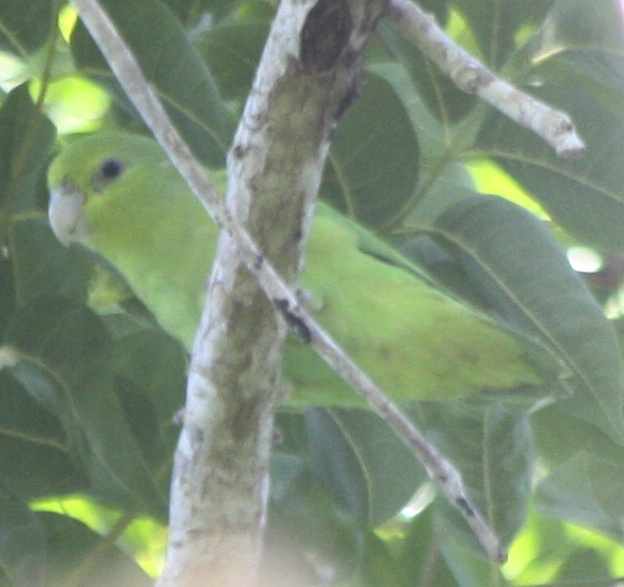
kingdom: Animalia
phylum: Chordata
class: Aves
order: Psittaciformes
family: Psittacidae
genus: Forpus
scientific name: Forpus cyanopygius
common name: Mexican parrotlet
